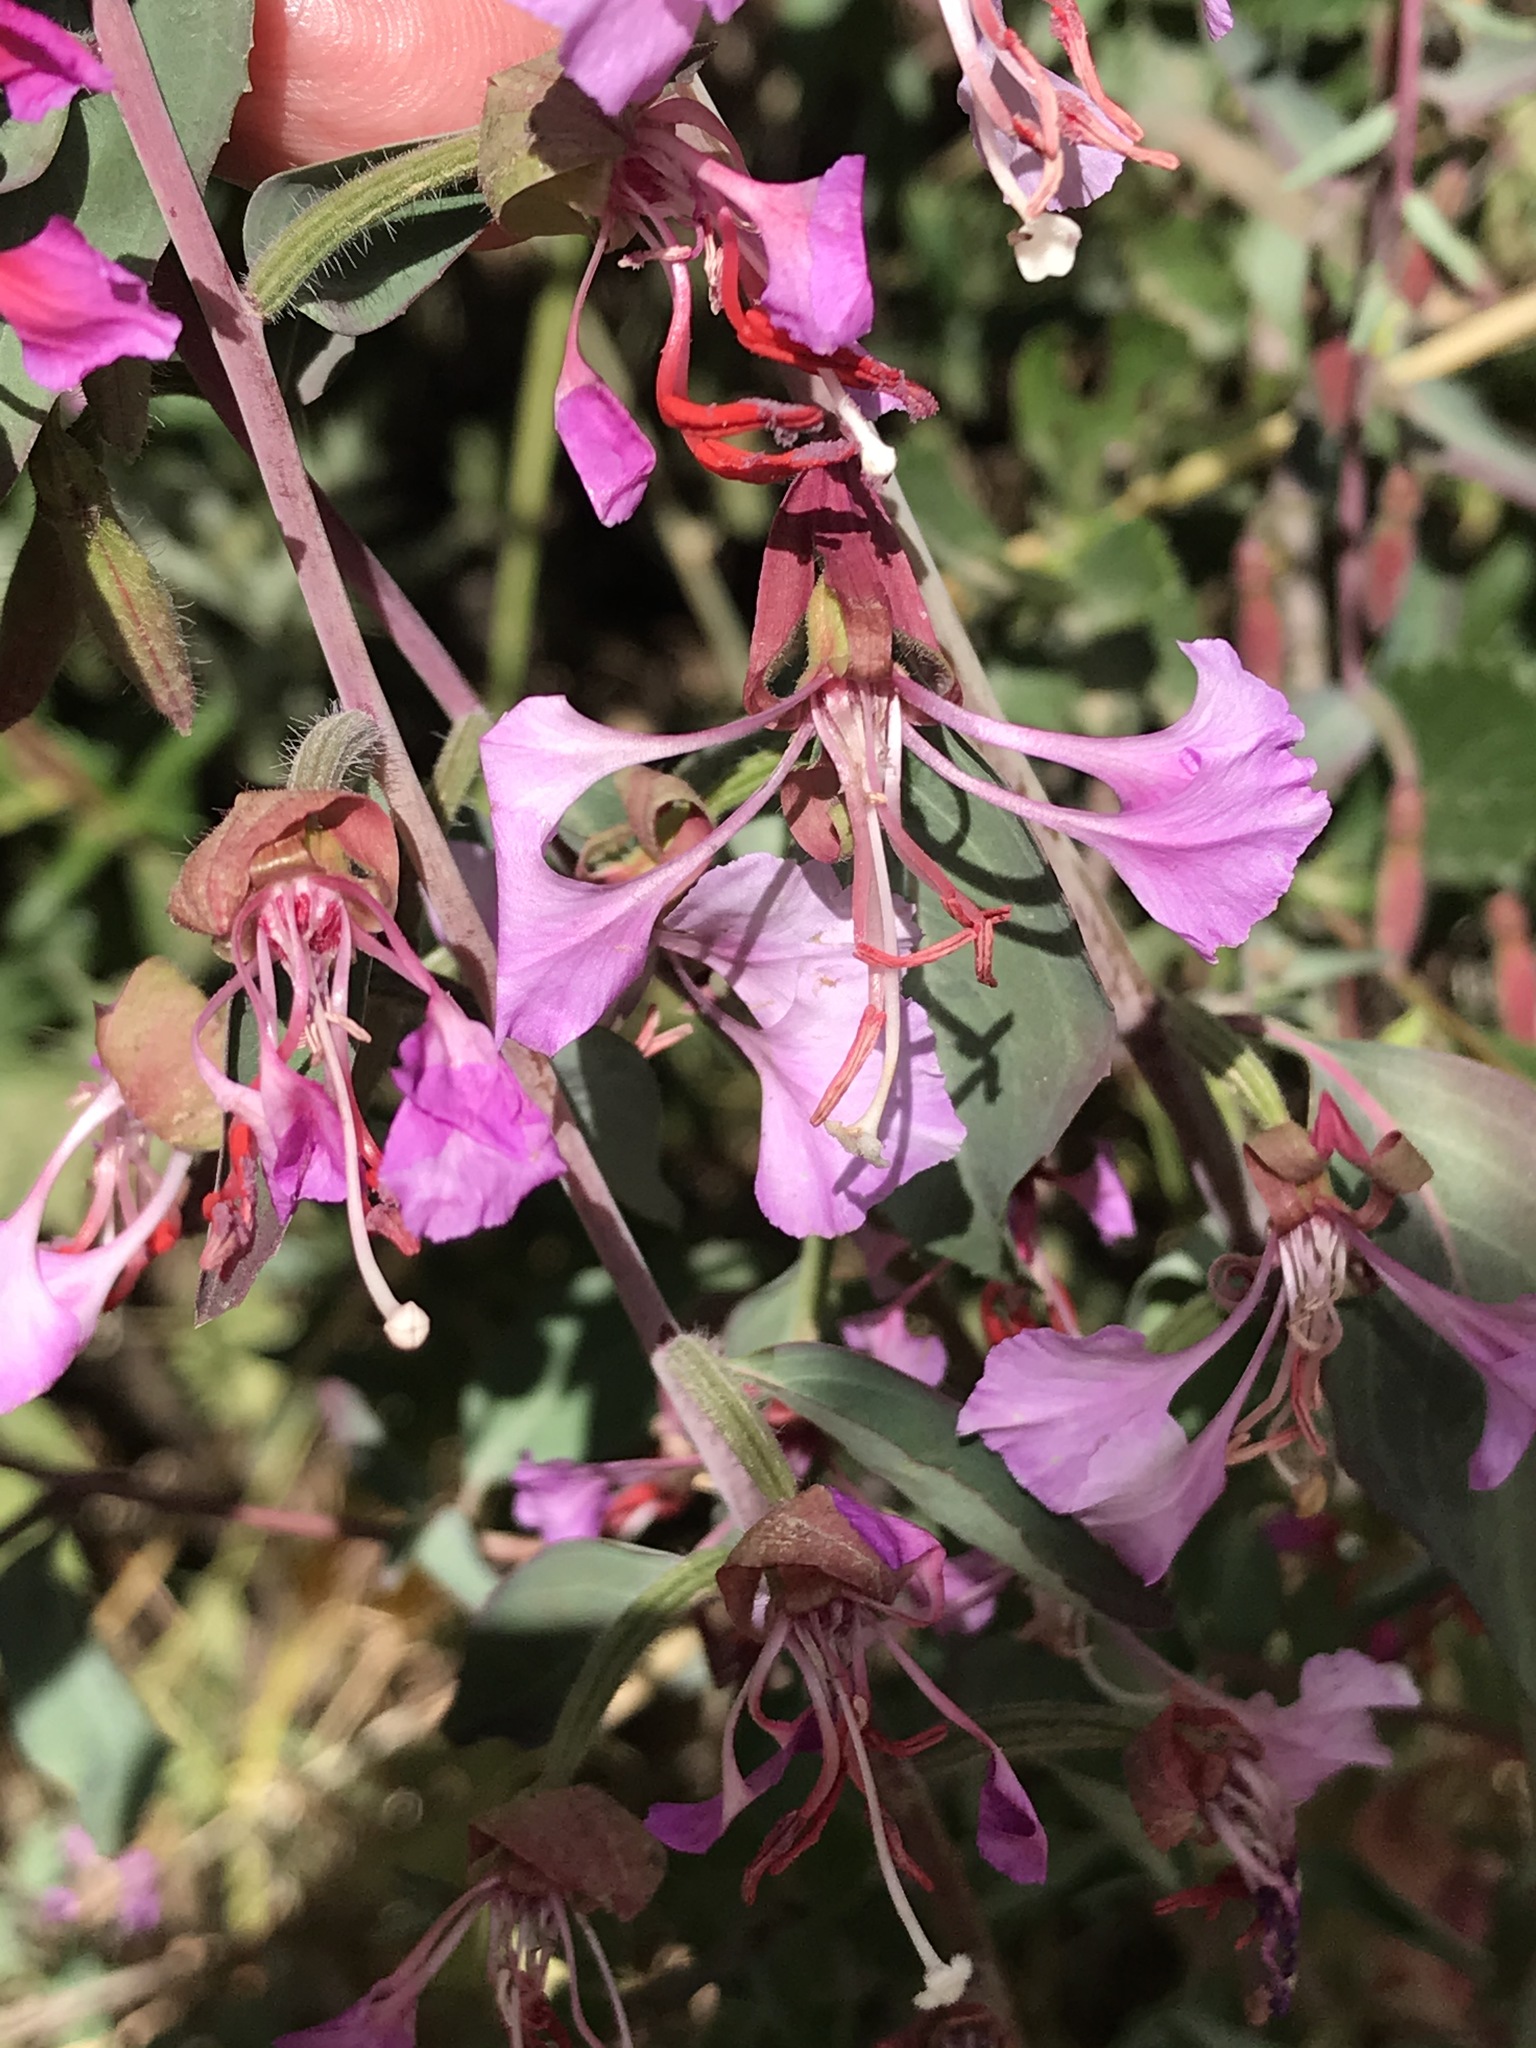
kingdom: Plantae
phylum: Tracheophyta
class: Magnoliopsida
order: Myrtales
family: Onagraceae
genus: Clarkia
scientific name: Clarkia unguiculata
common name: Clarkia
